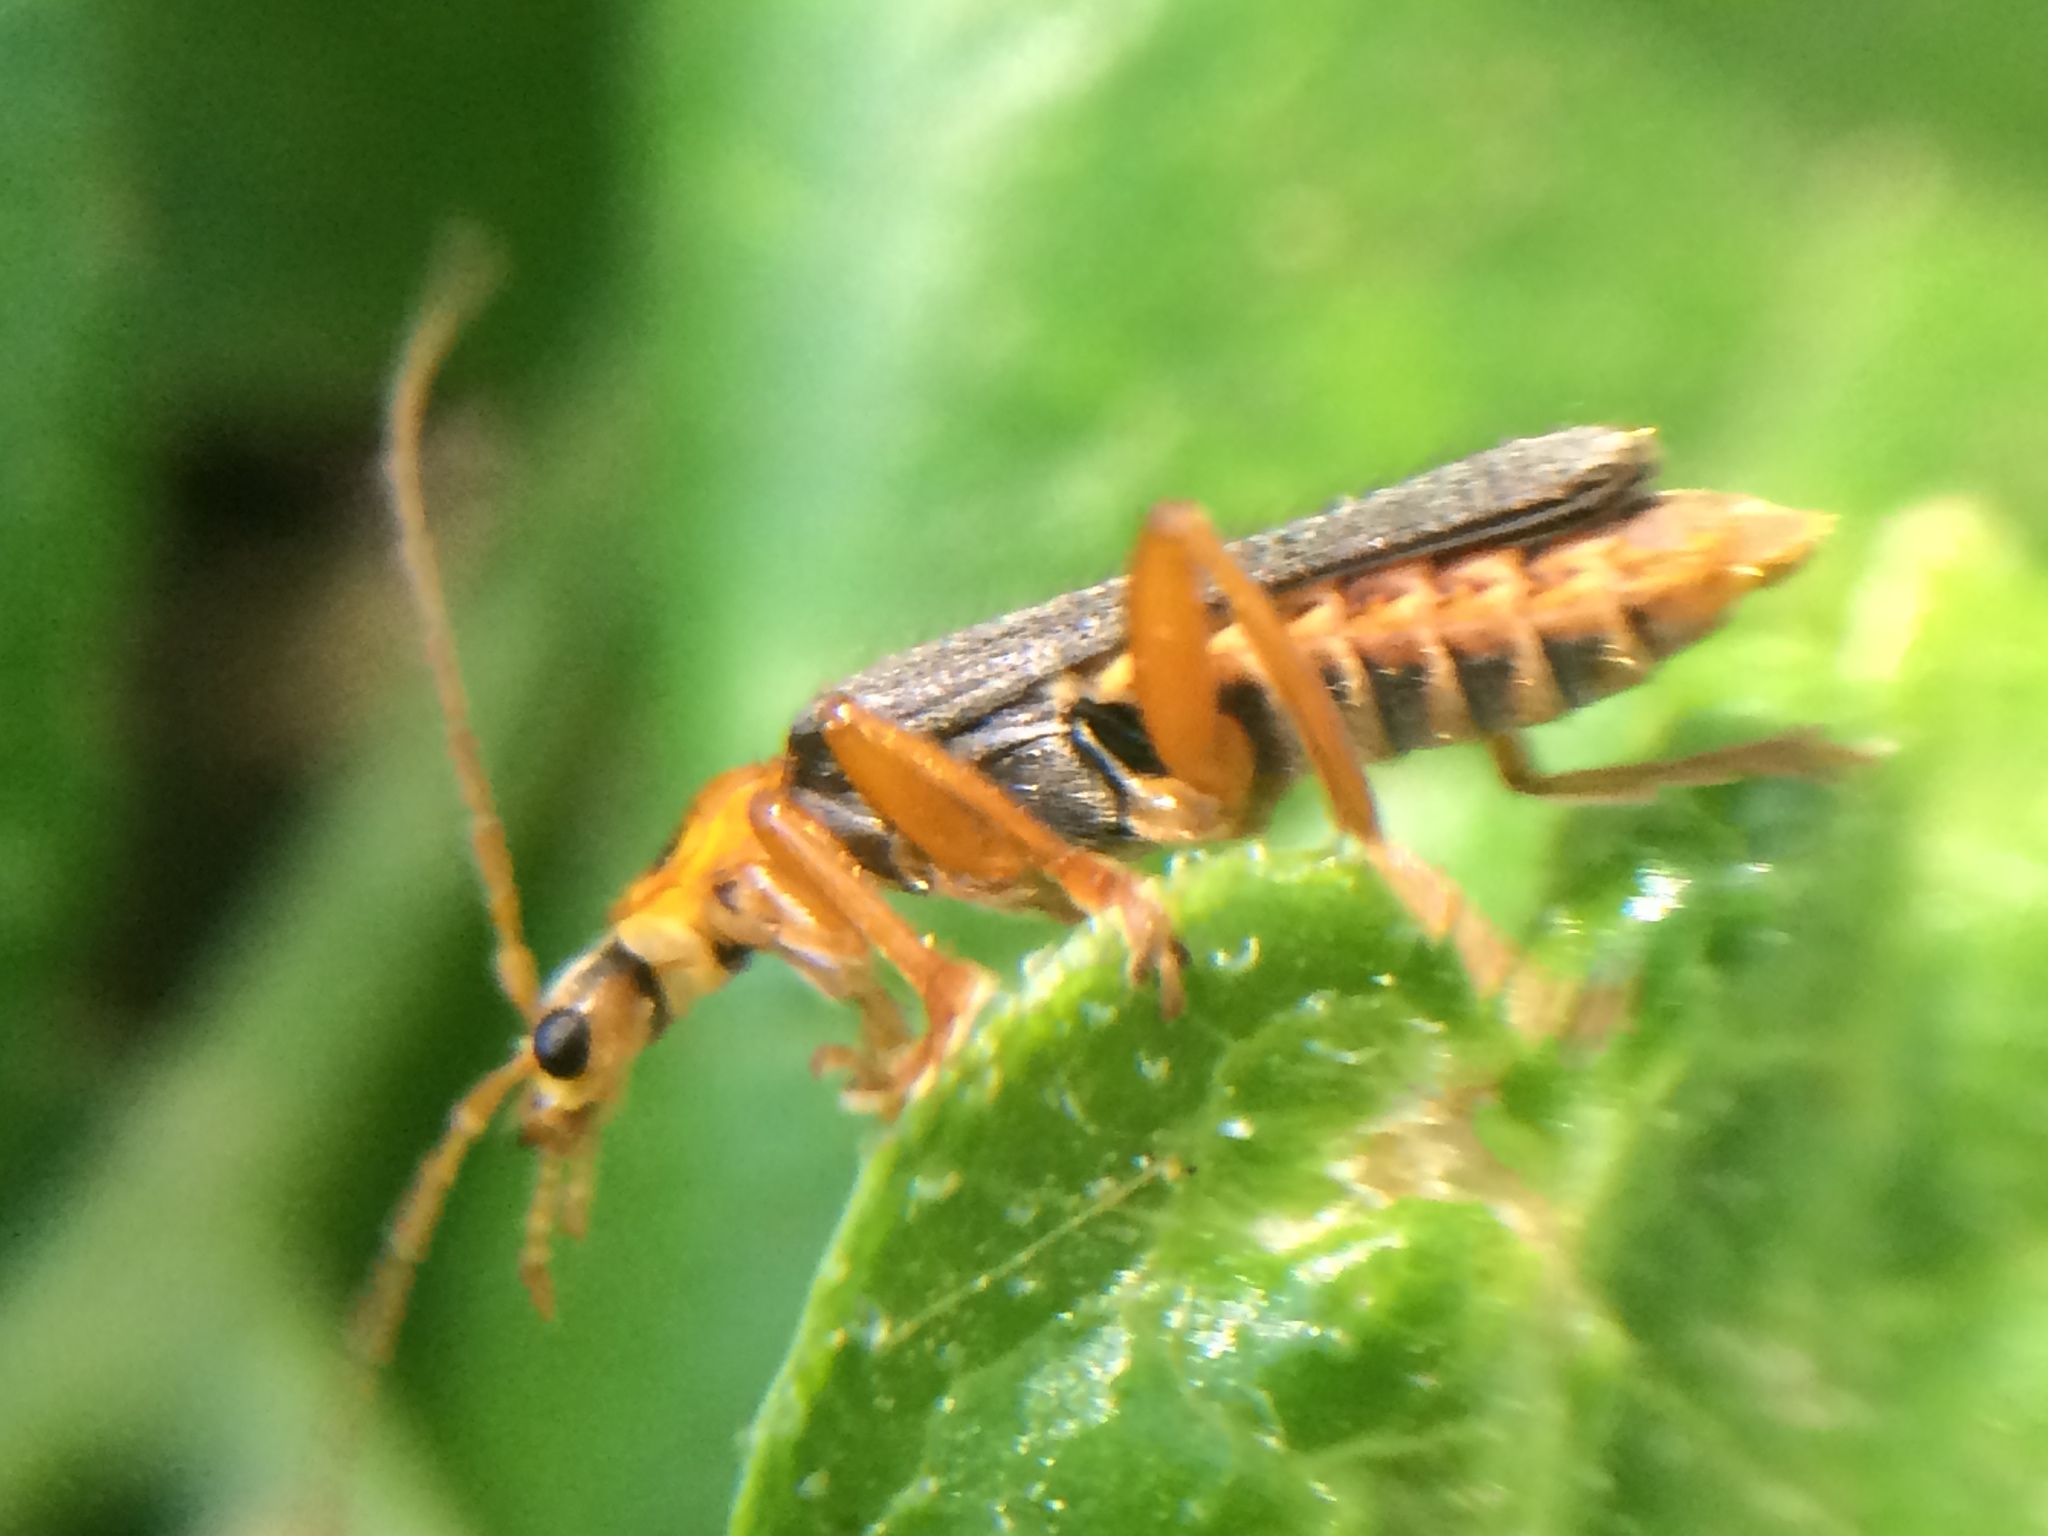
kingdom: Animalia
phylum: Arthropoda
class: Insecta
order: Coleoptera
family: Cantharidae
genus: Cultellunguis
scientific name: Cultellunguis americanus
